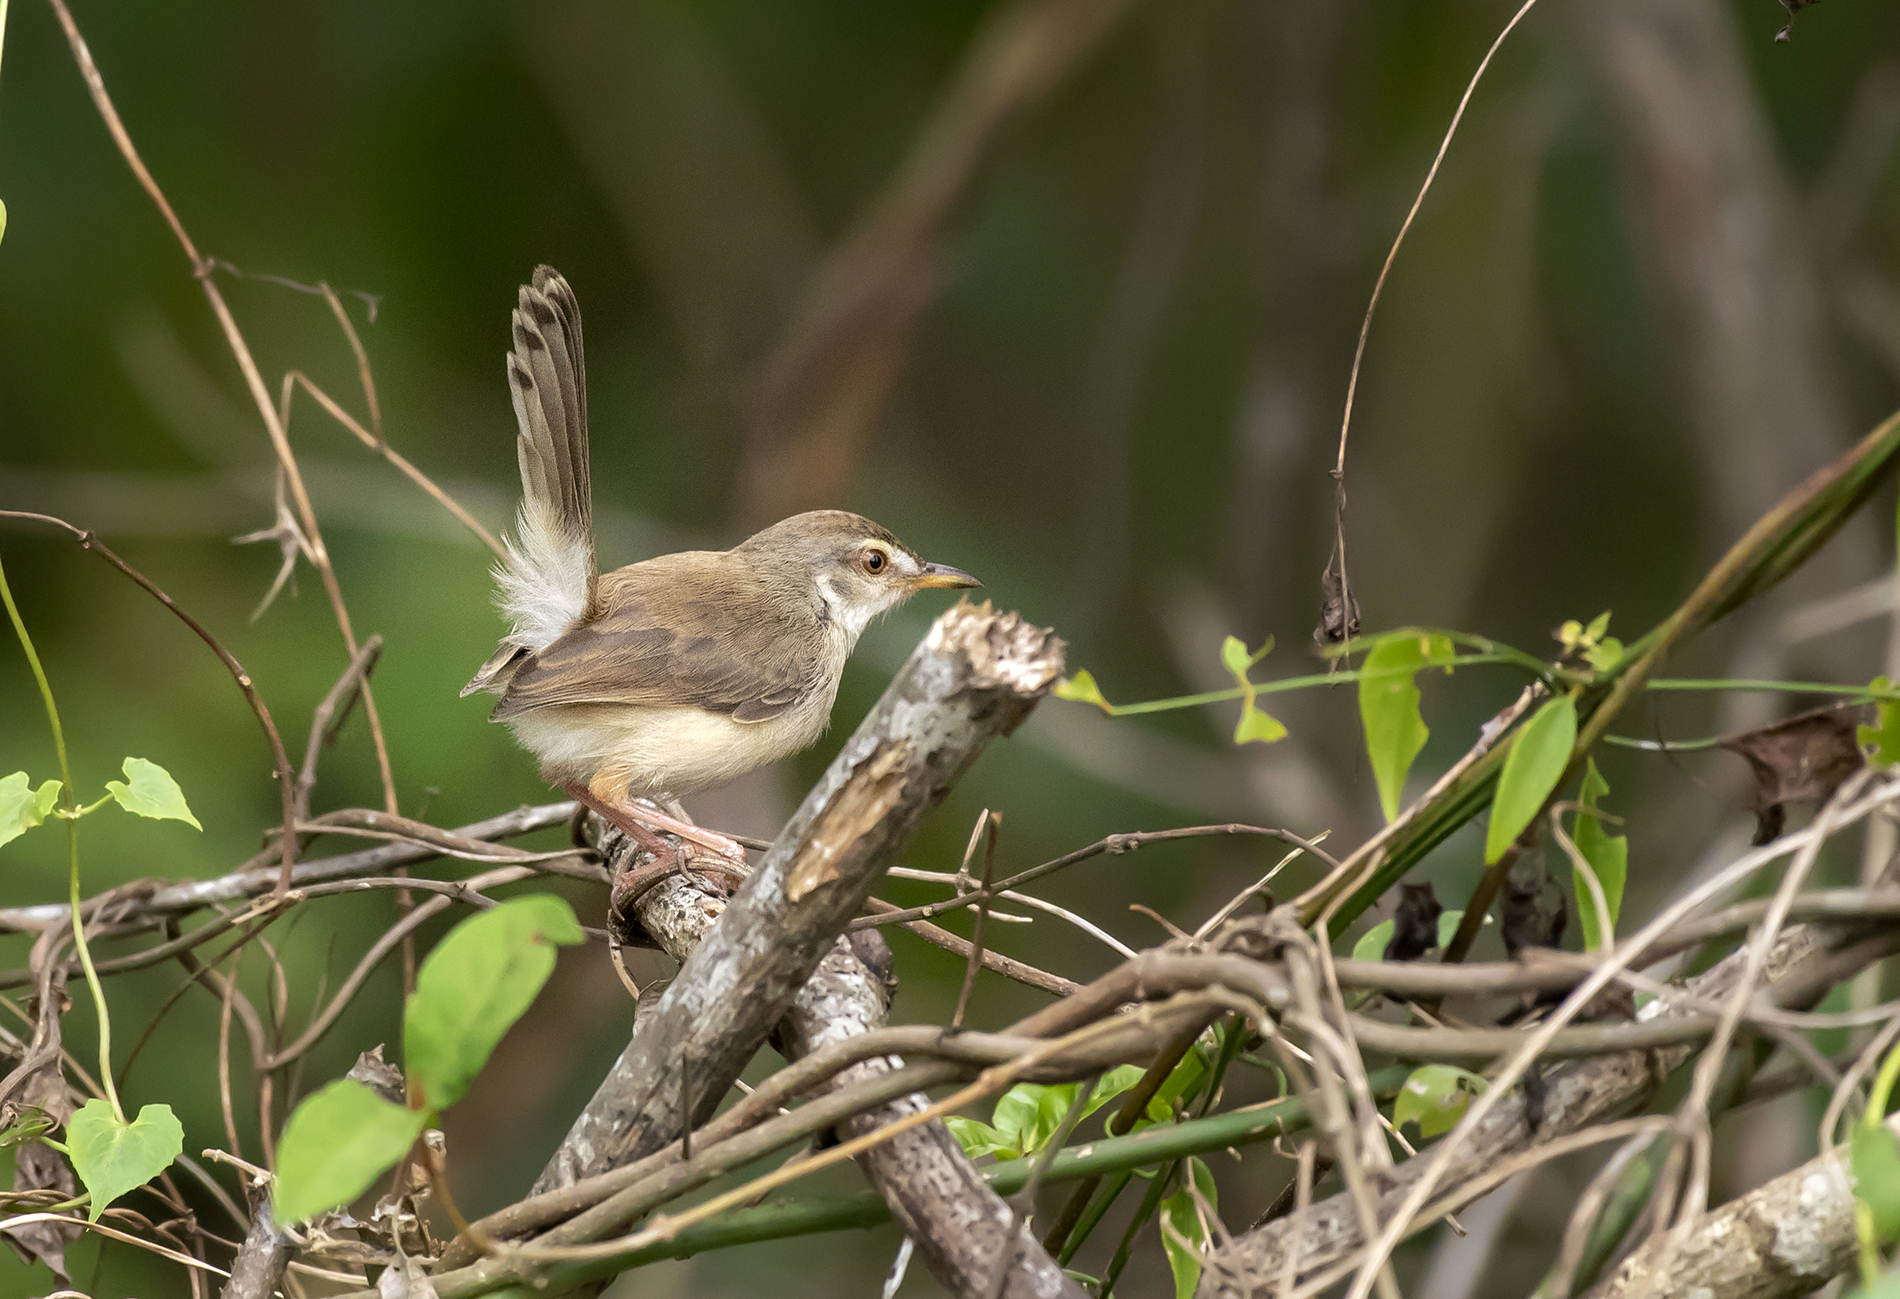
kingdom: Animalia
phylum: Chordata
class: Aves
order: Passeriformes
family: Cisticolidae
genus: Prinia
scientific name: Prinia inornata
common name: Plain prinia
